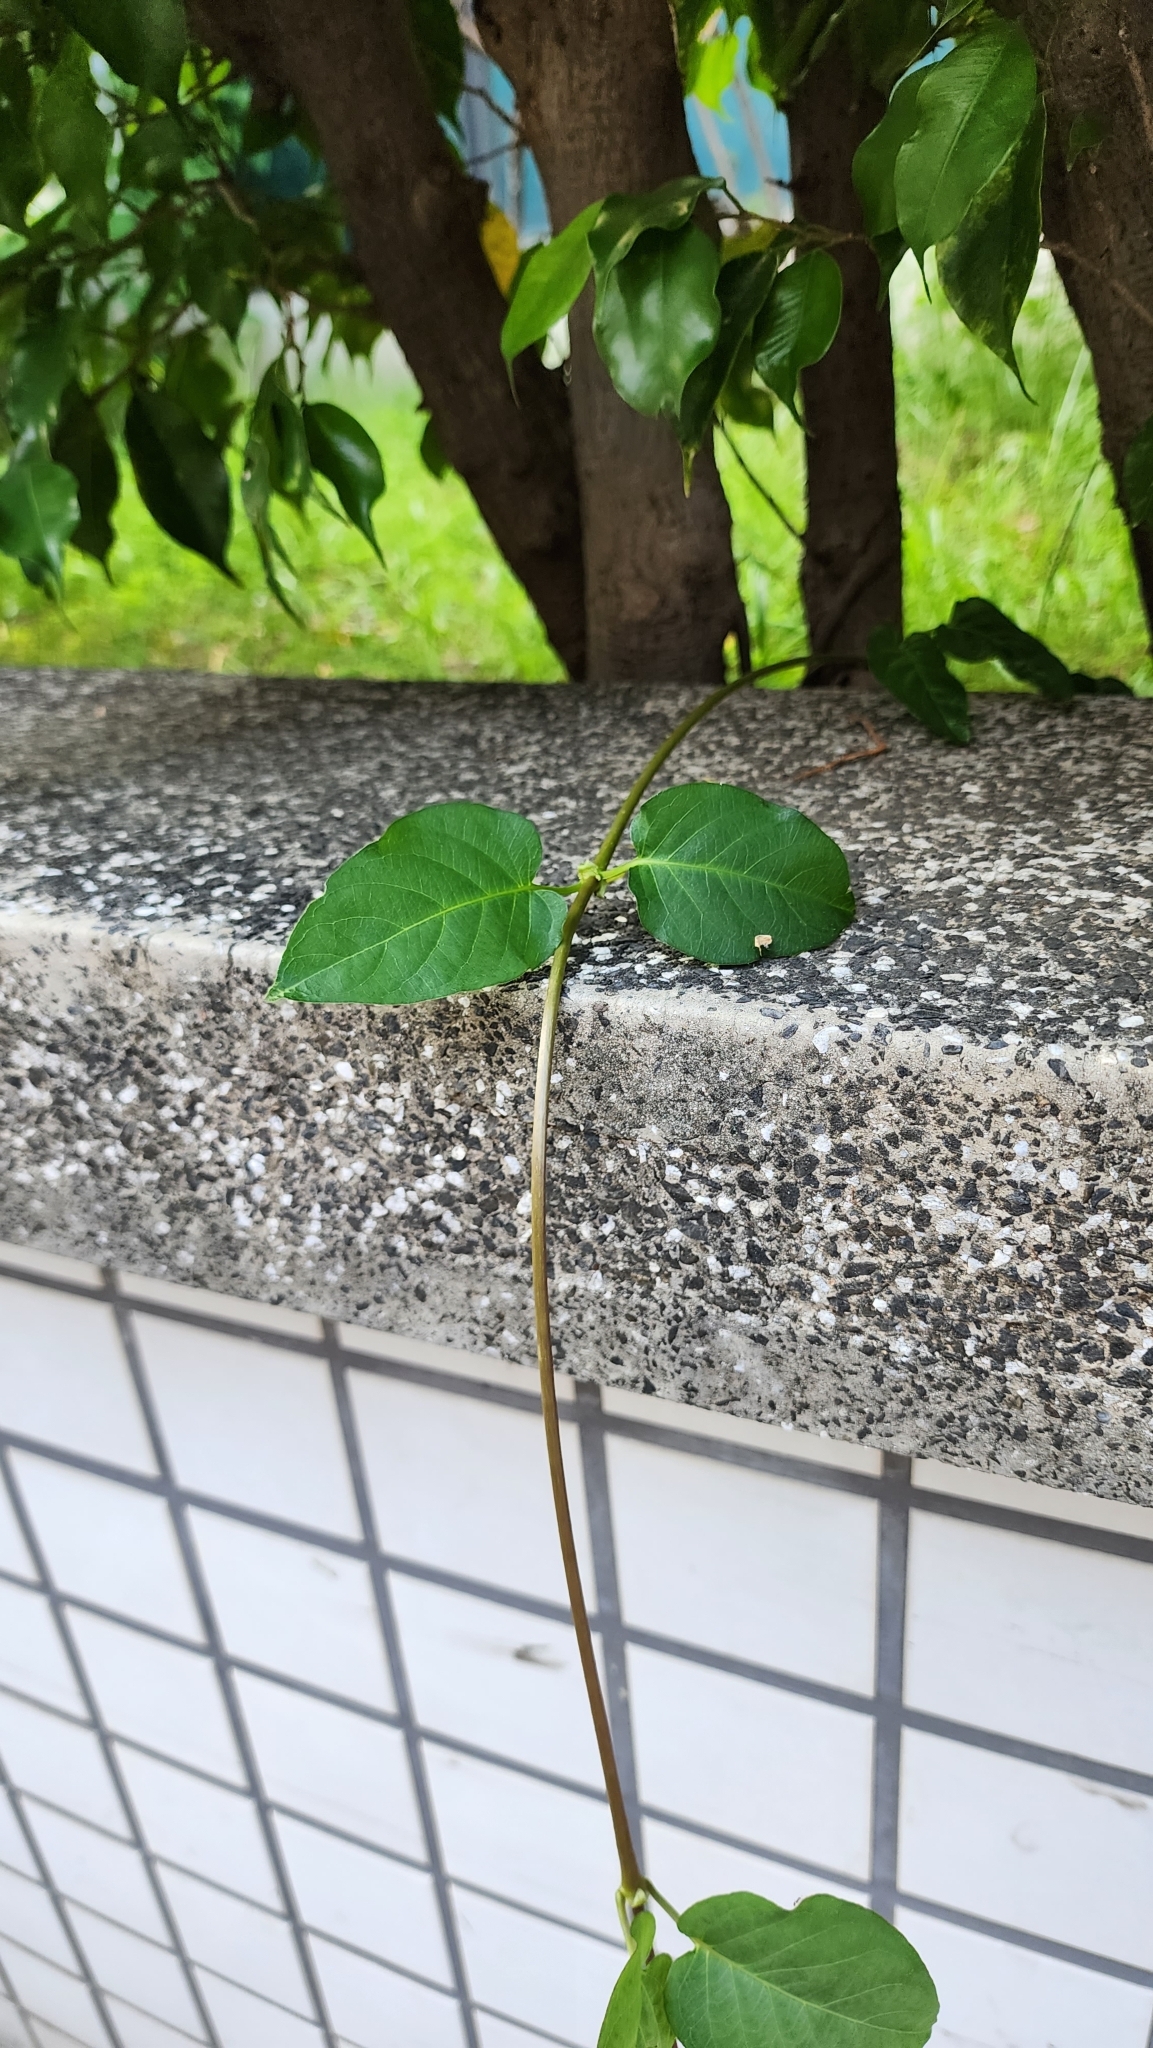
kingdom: Plantae
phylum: Tracheophyta
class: Magnoliopsida
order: Gentianales
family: Rubiaceae
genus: Paederia
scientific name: Paederia foetida
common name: Stinkvine
